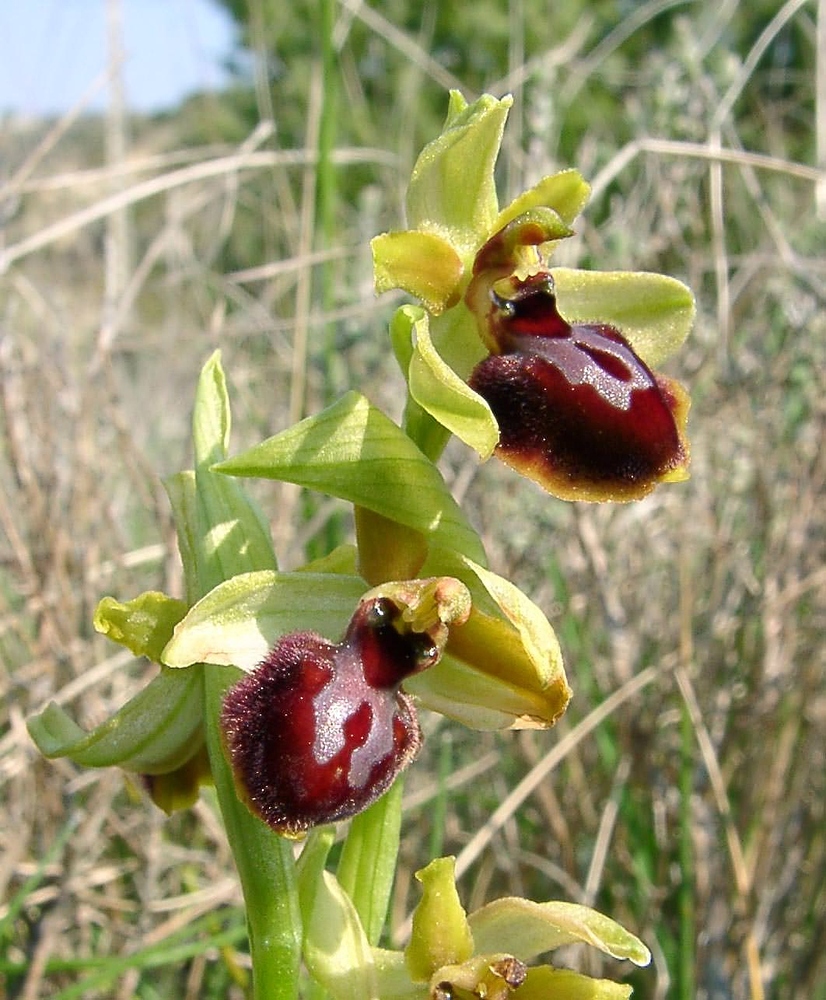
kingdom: Plantae
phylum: Tracheophyta
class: Liliopsida
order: Asparagales
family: Orchidaceae
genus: Ophrys
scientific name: Ophrys sphegodes
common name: Early spider-orchid
